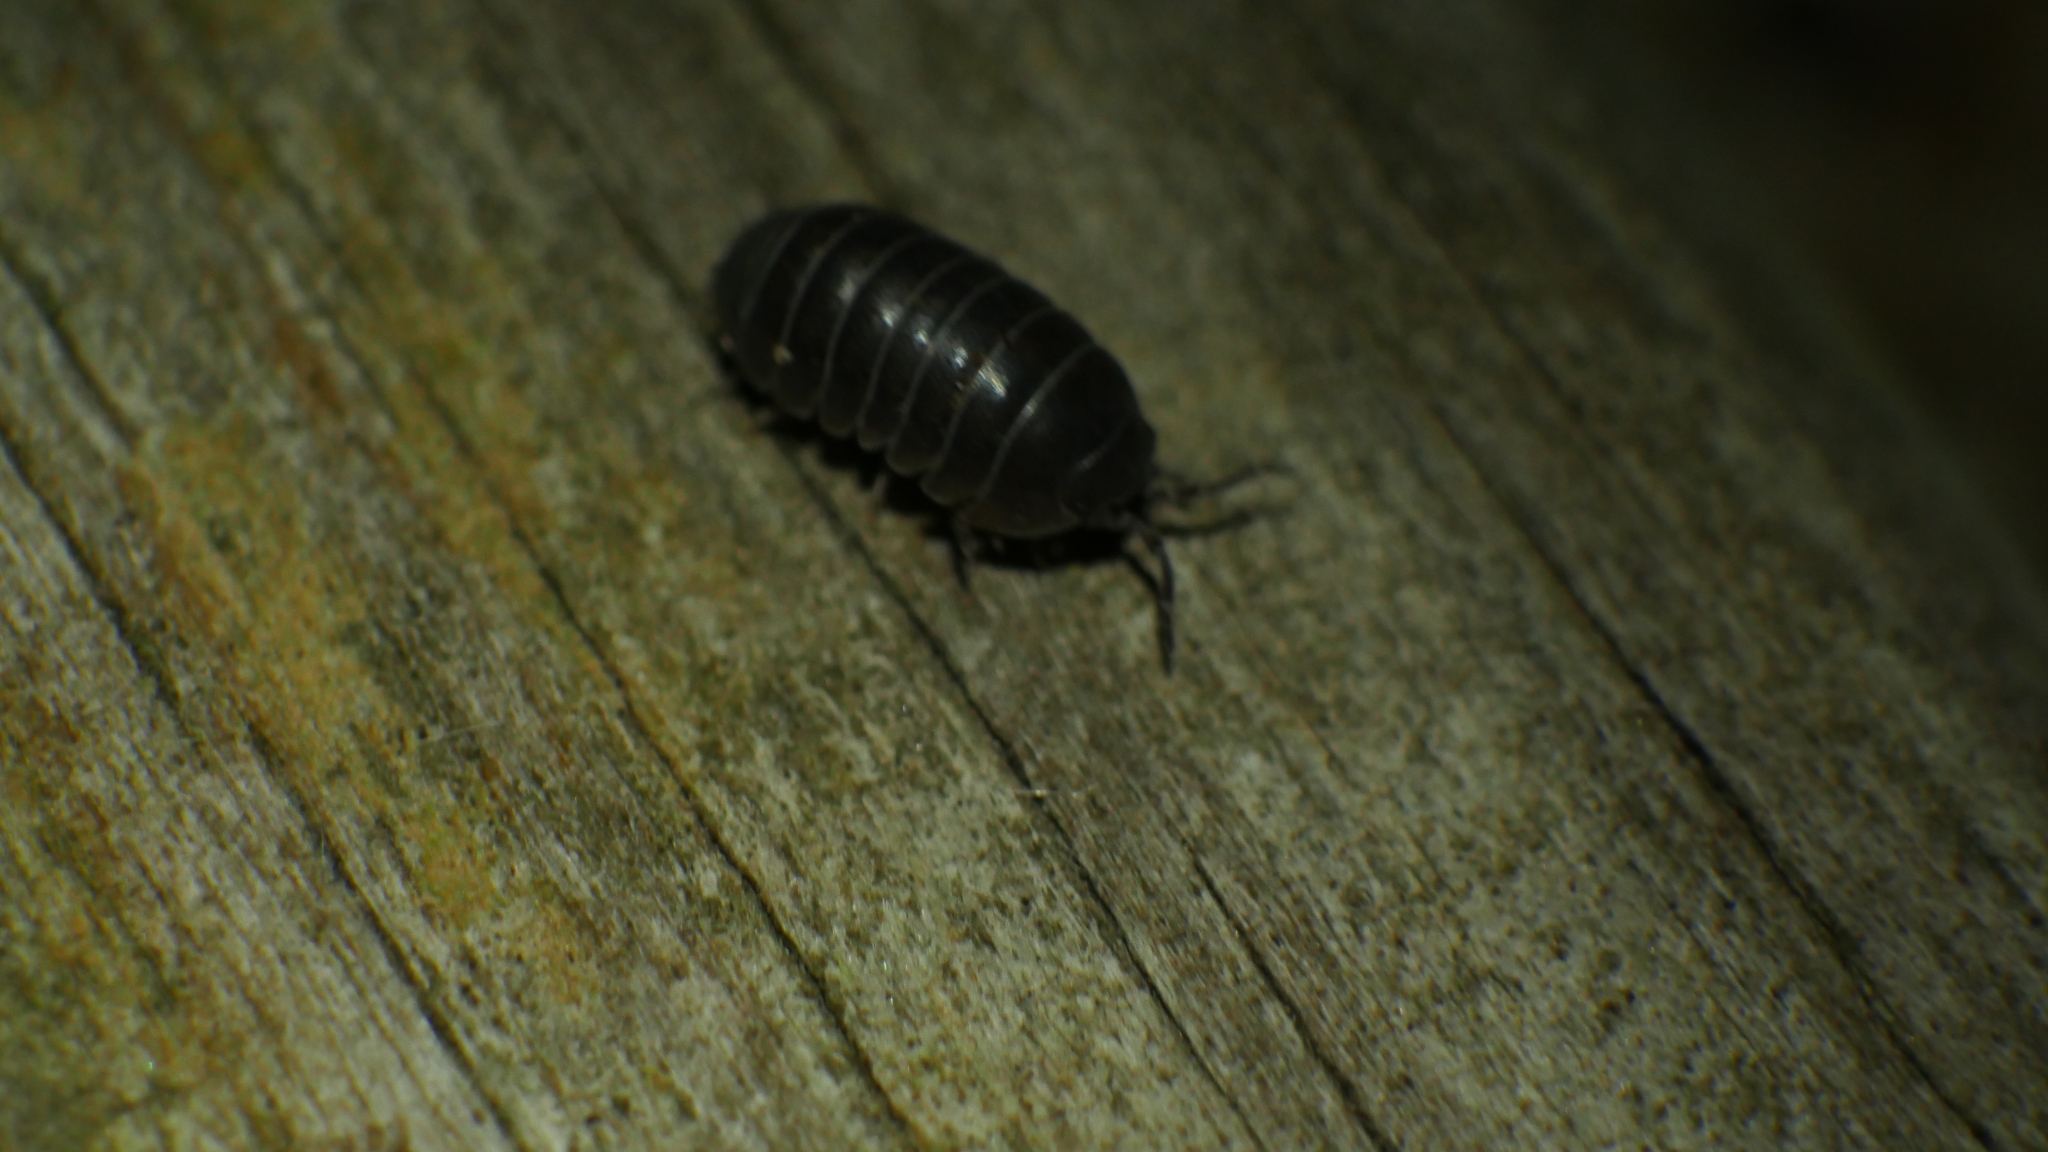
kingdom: Animalia
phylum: Arthropoda
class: Malacostraca
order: Isopoda
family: Armadillidiidae
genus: Armadillidium
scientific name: Armadillidium vulgare
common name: Common pill woodlouse
